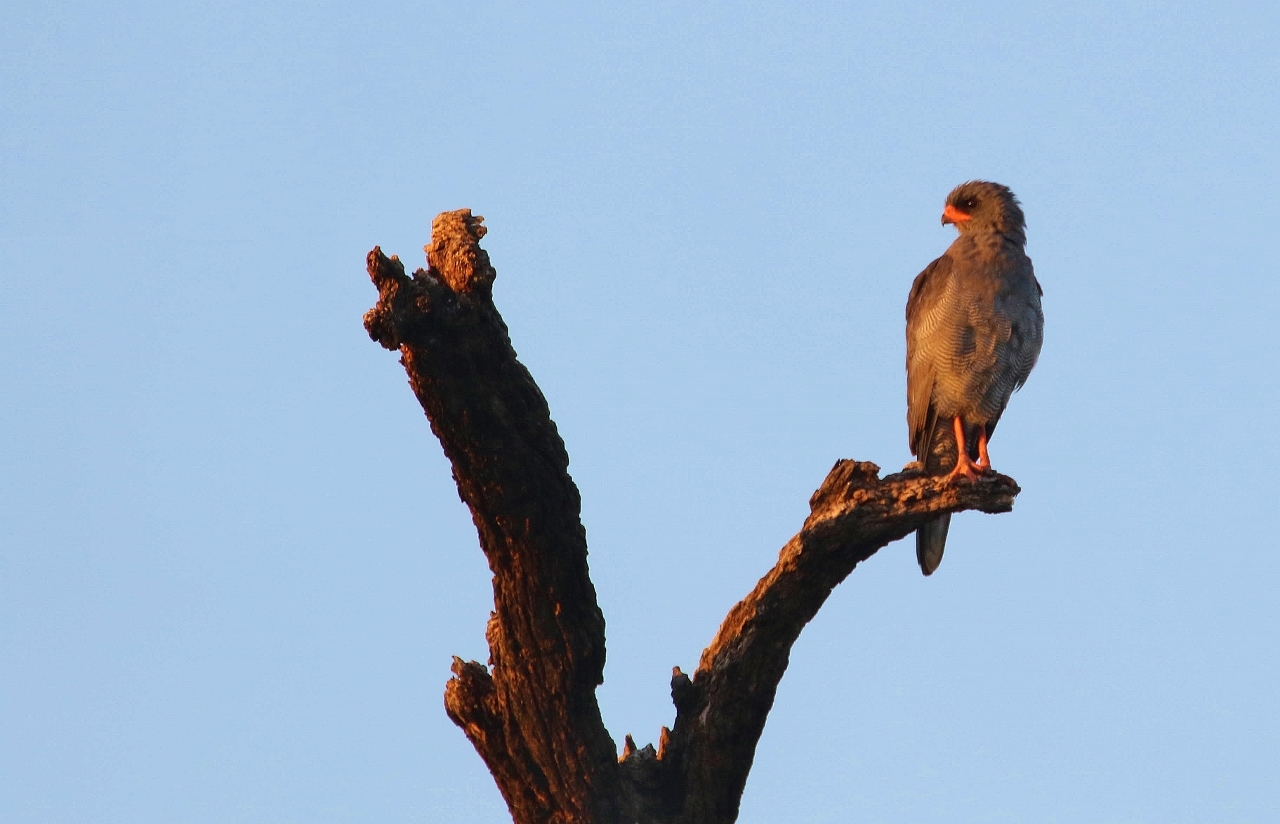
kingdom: Animalia
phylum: Chordata
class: Aves
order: Accipitriformes
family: Accipitridae
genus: Melierax
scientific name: Melierax metabates
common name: Dark chanting-goshawk
